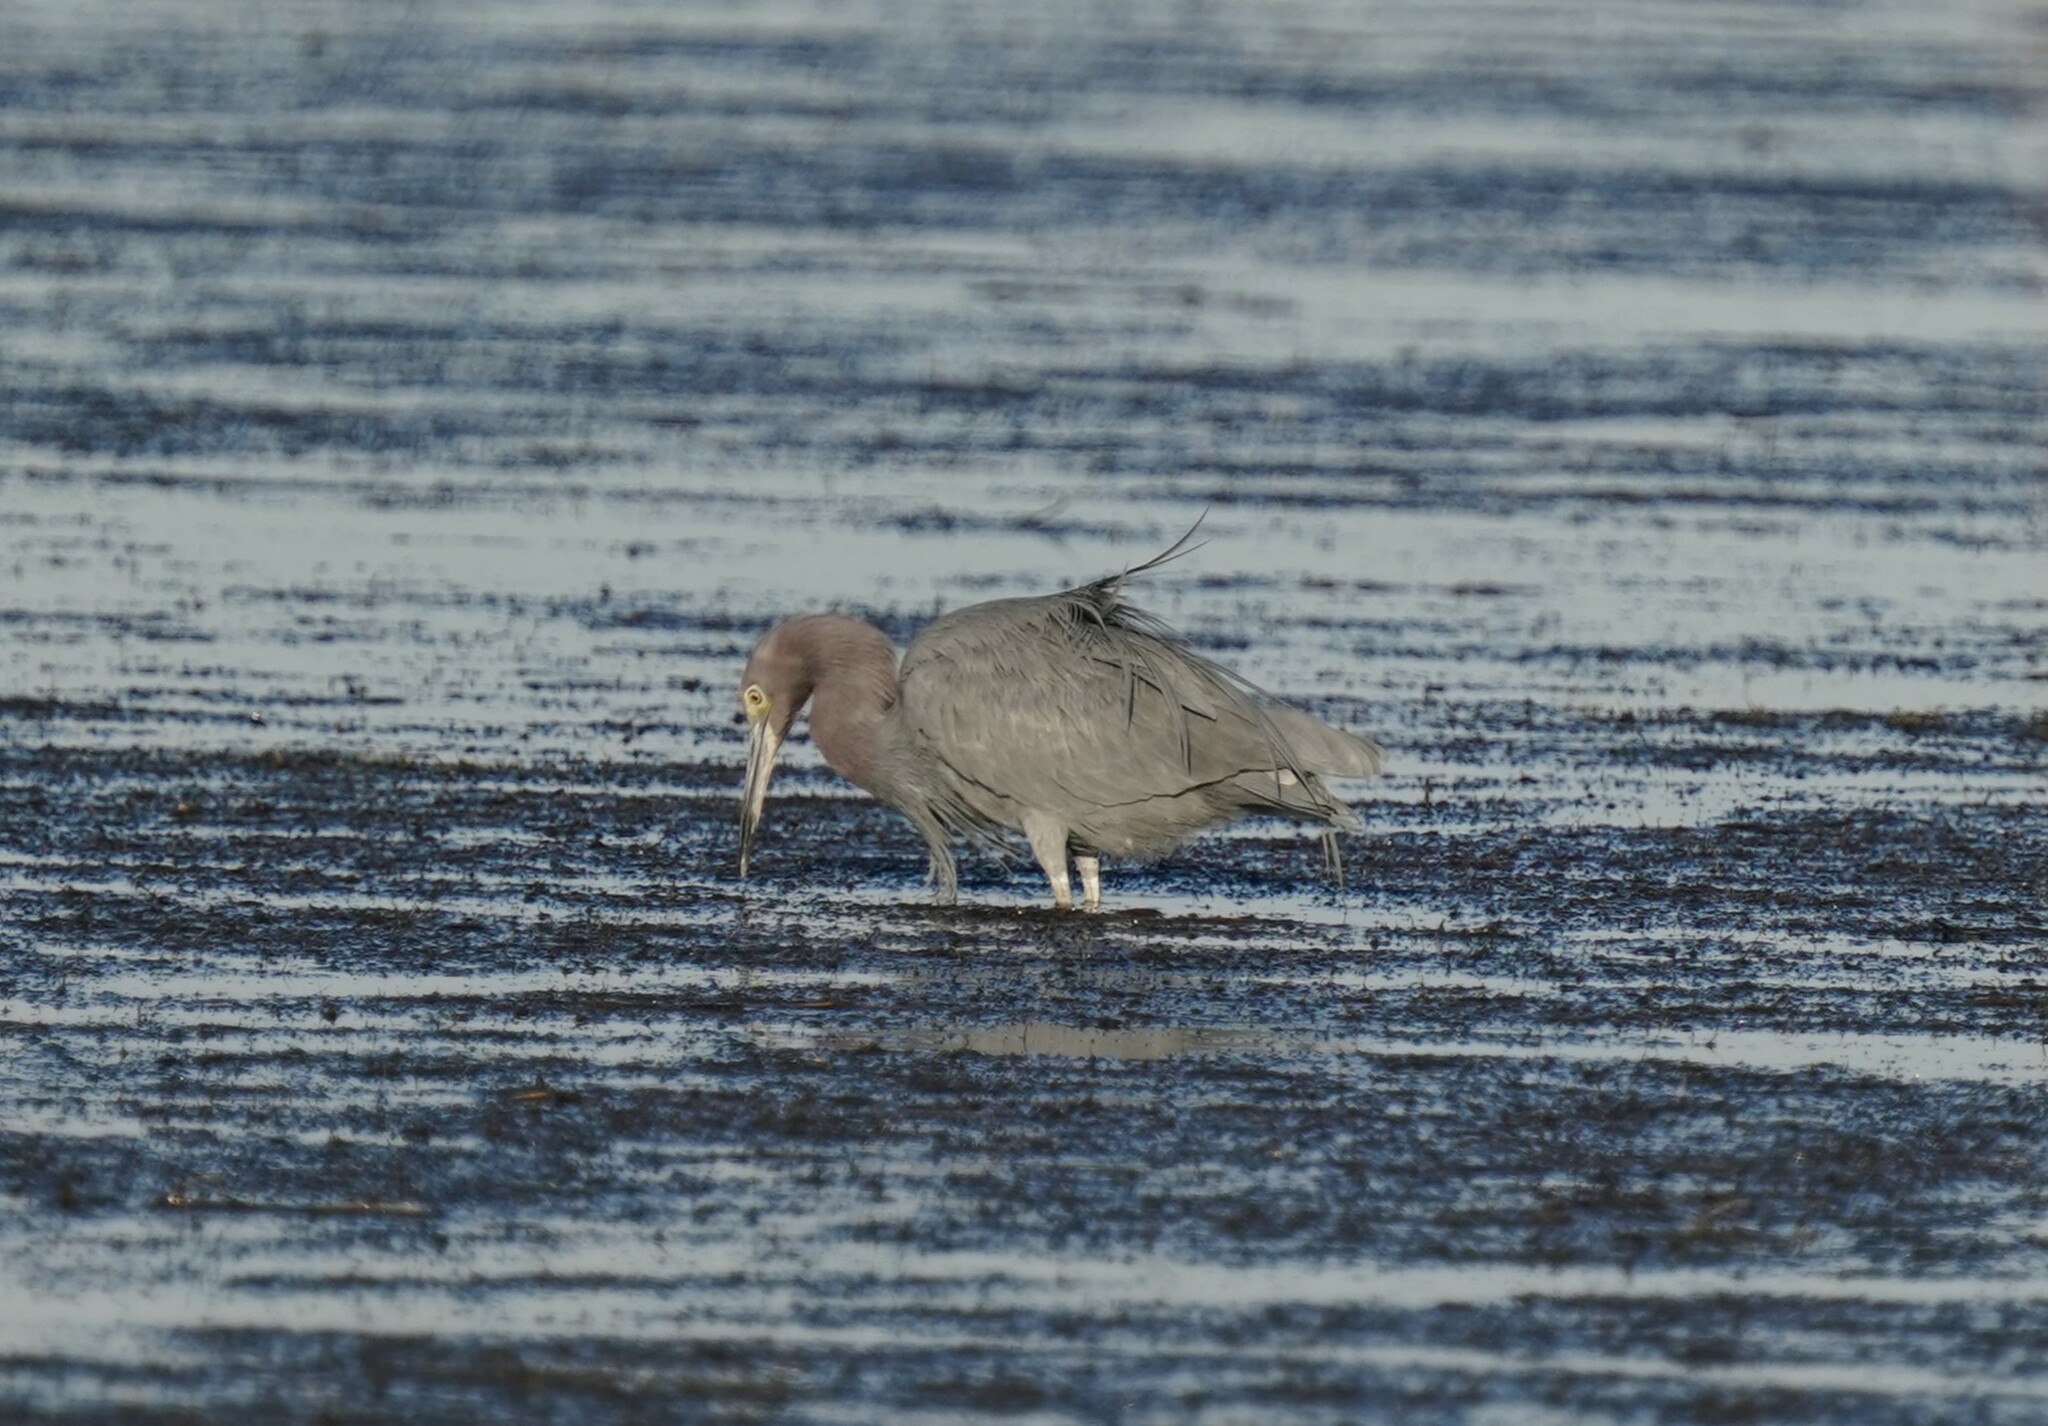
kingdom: Animalia
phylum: Chordata
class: Aves
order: Pelecaniformes
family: Ardeidae
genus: Egretta
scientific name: Egretta caerulea
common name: Little blue heron
